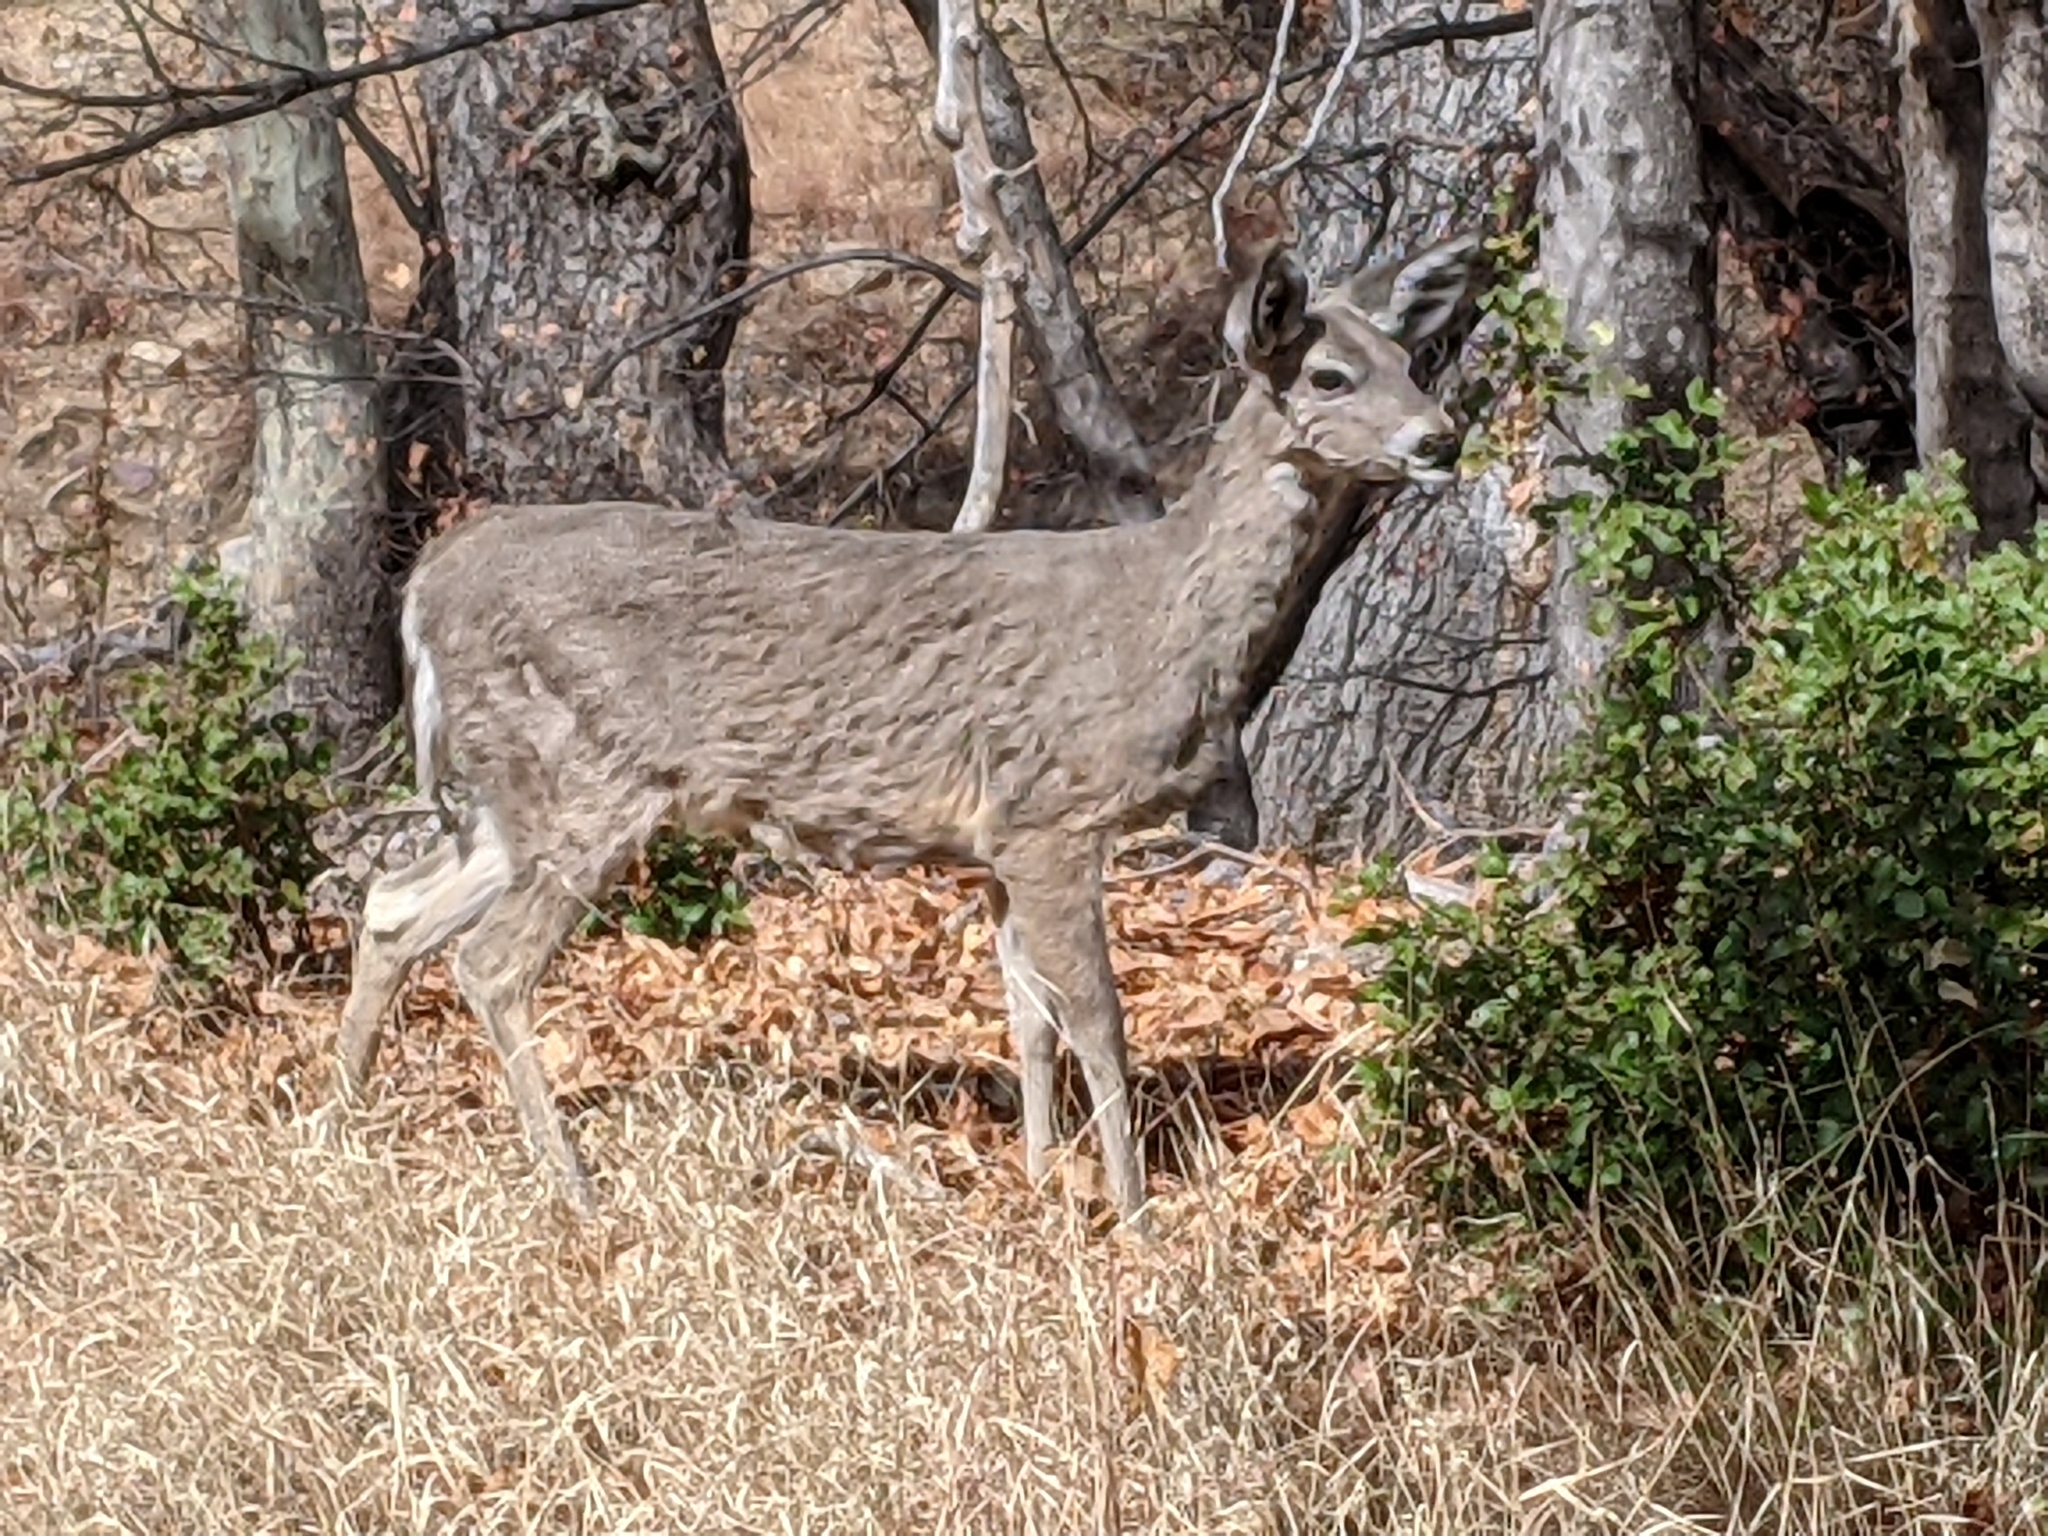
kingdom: Animalia
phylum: Chordata
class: Mammalia
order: Artiodactyla
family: Cervidae
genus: Odocoileus
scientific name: Odocoileus virginianus
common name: White-tailed deer
